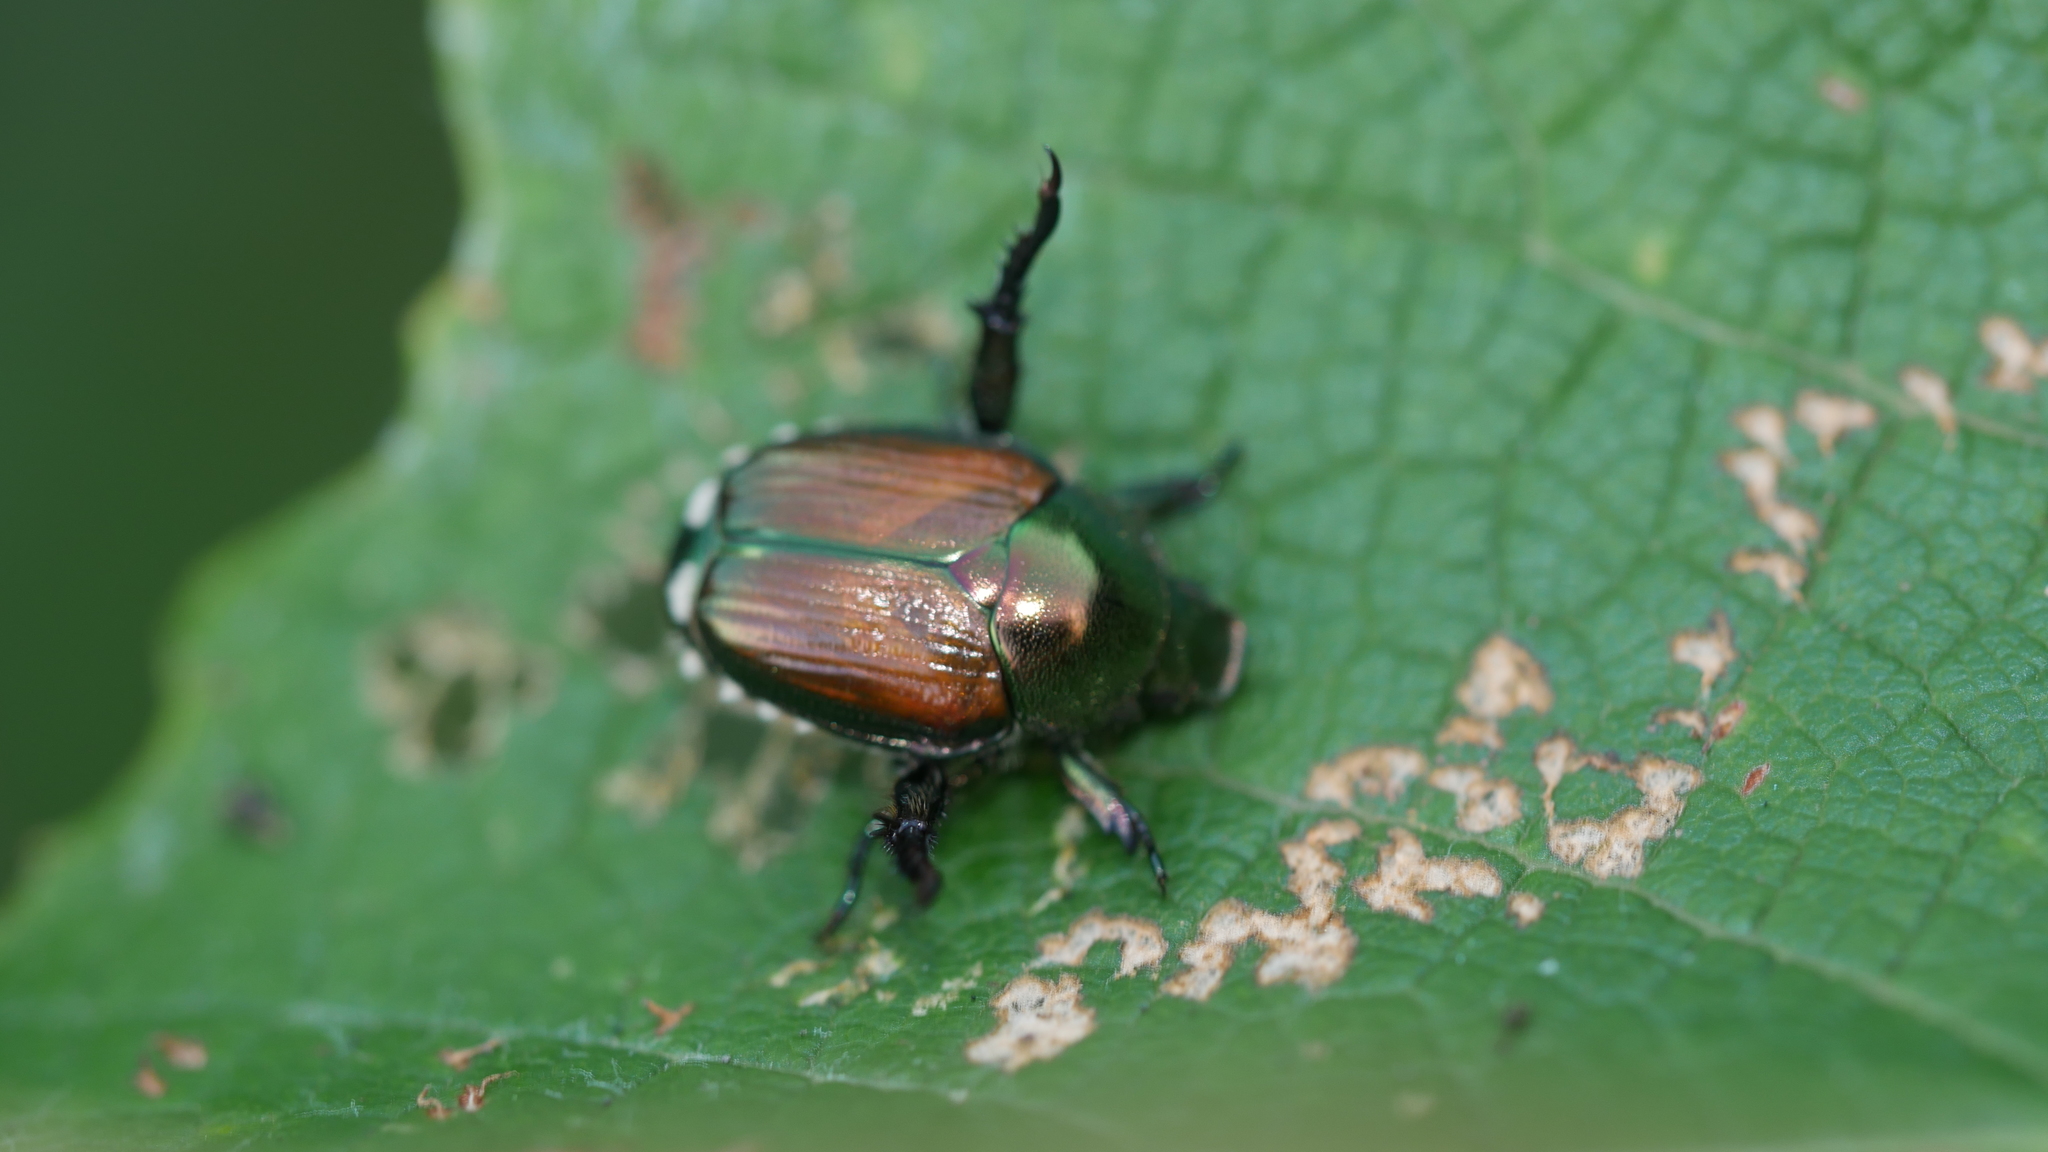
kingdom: Animalia
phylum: Arthropoda
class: Insecta
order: Coleoptera
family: Scarabaeidae
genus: Popillia
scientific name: Popillia japonica
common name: Japanese beetle
